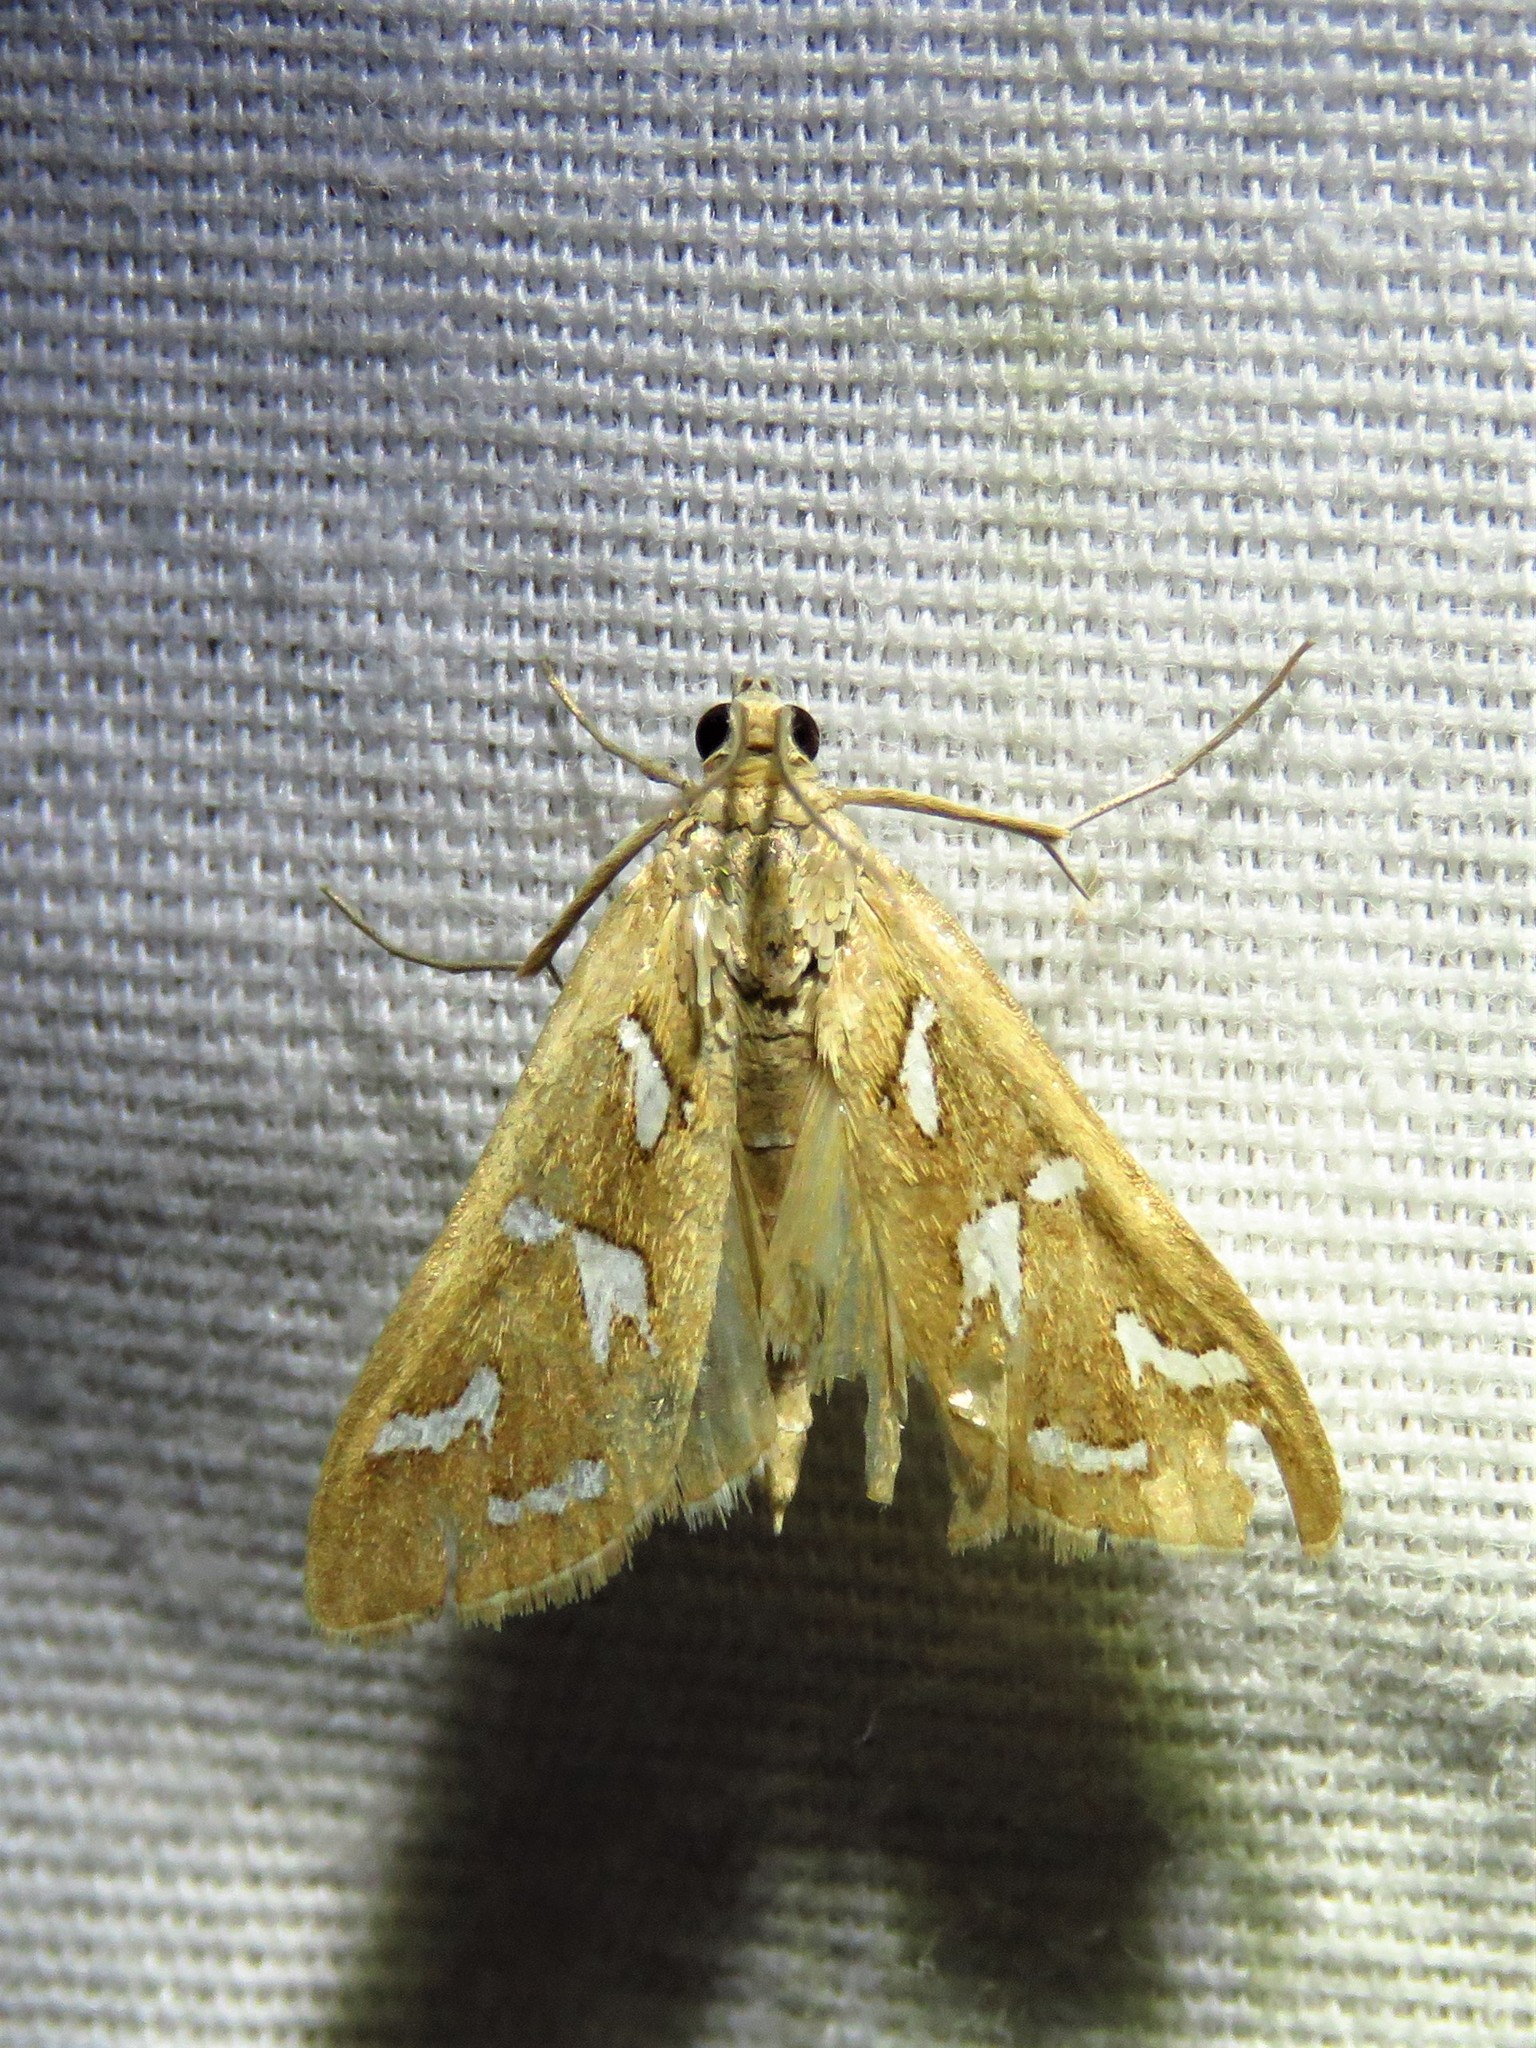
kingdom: Animalia
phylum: Arthropoda
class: Insecta
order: Lepidoptera
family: Crambidae
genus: Diastictis
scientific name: Diastictis fracturalis
